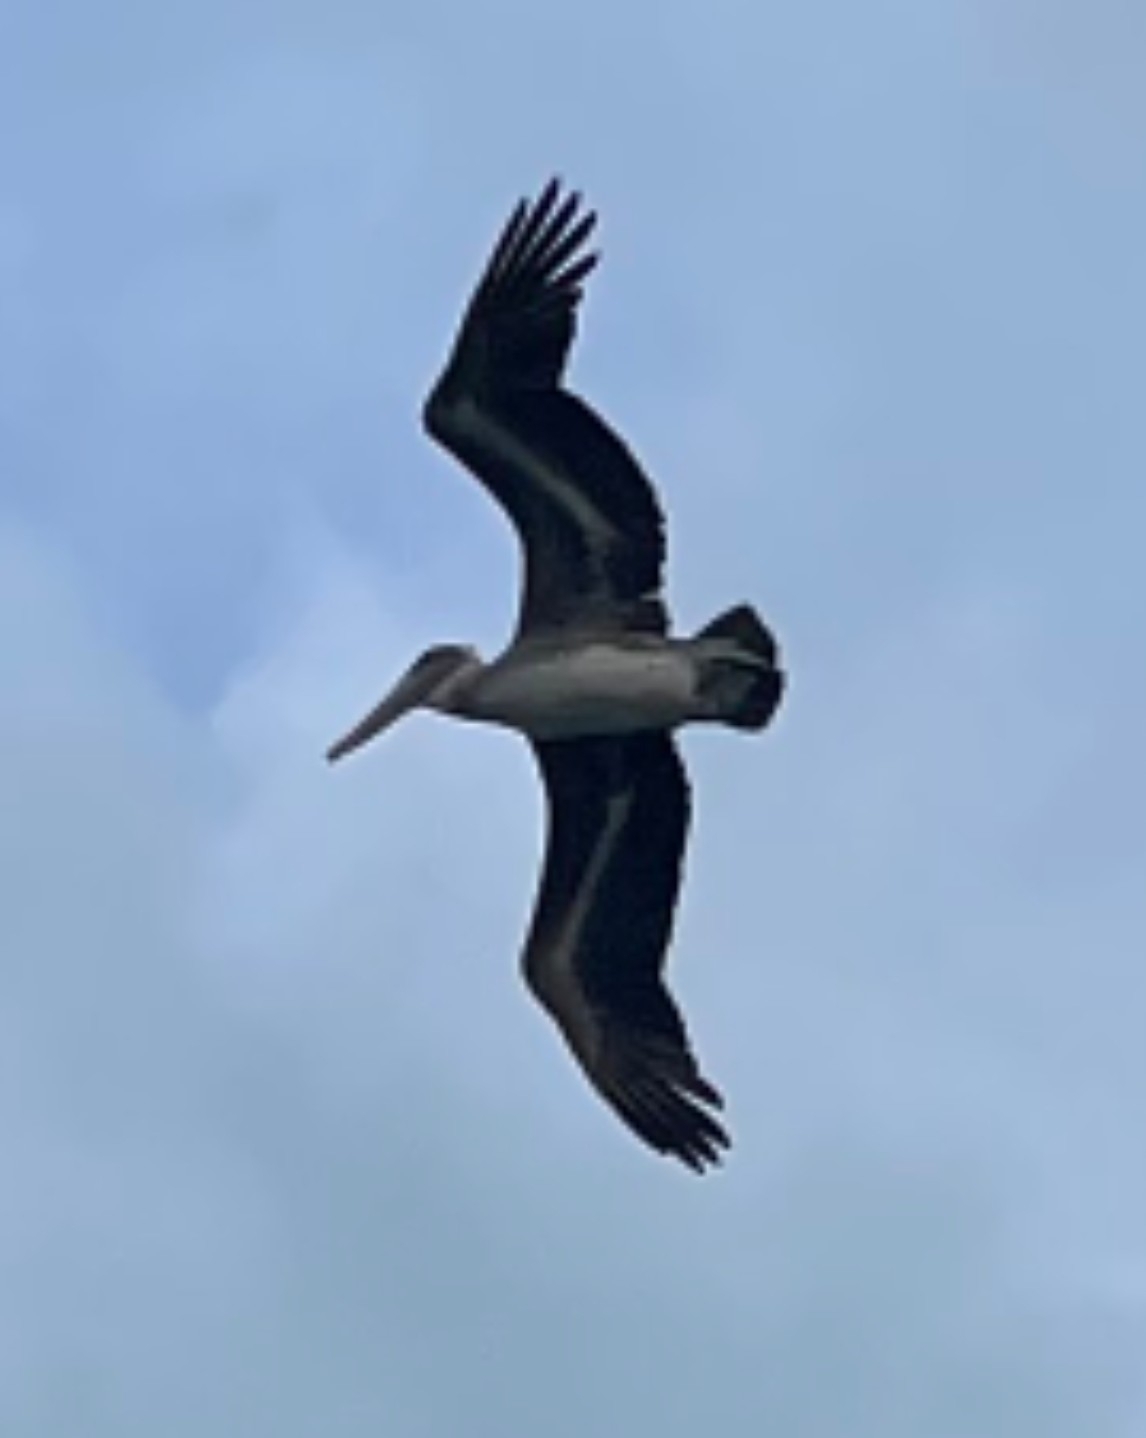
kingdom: Animalia
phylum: Chordata
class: Aves
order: Pelecaniformes
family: Pelecanidae
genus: Pelecanus
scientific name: Pelecanus occidentalis
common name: Brown pelican
